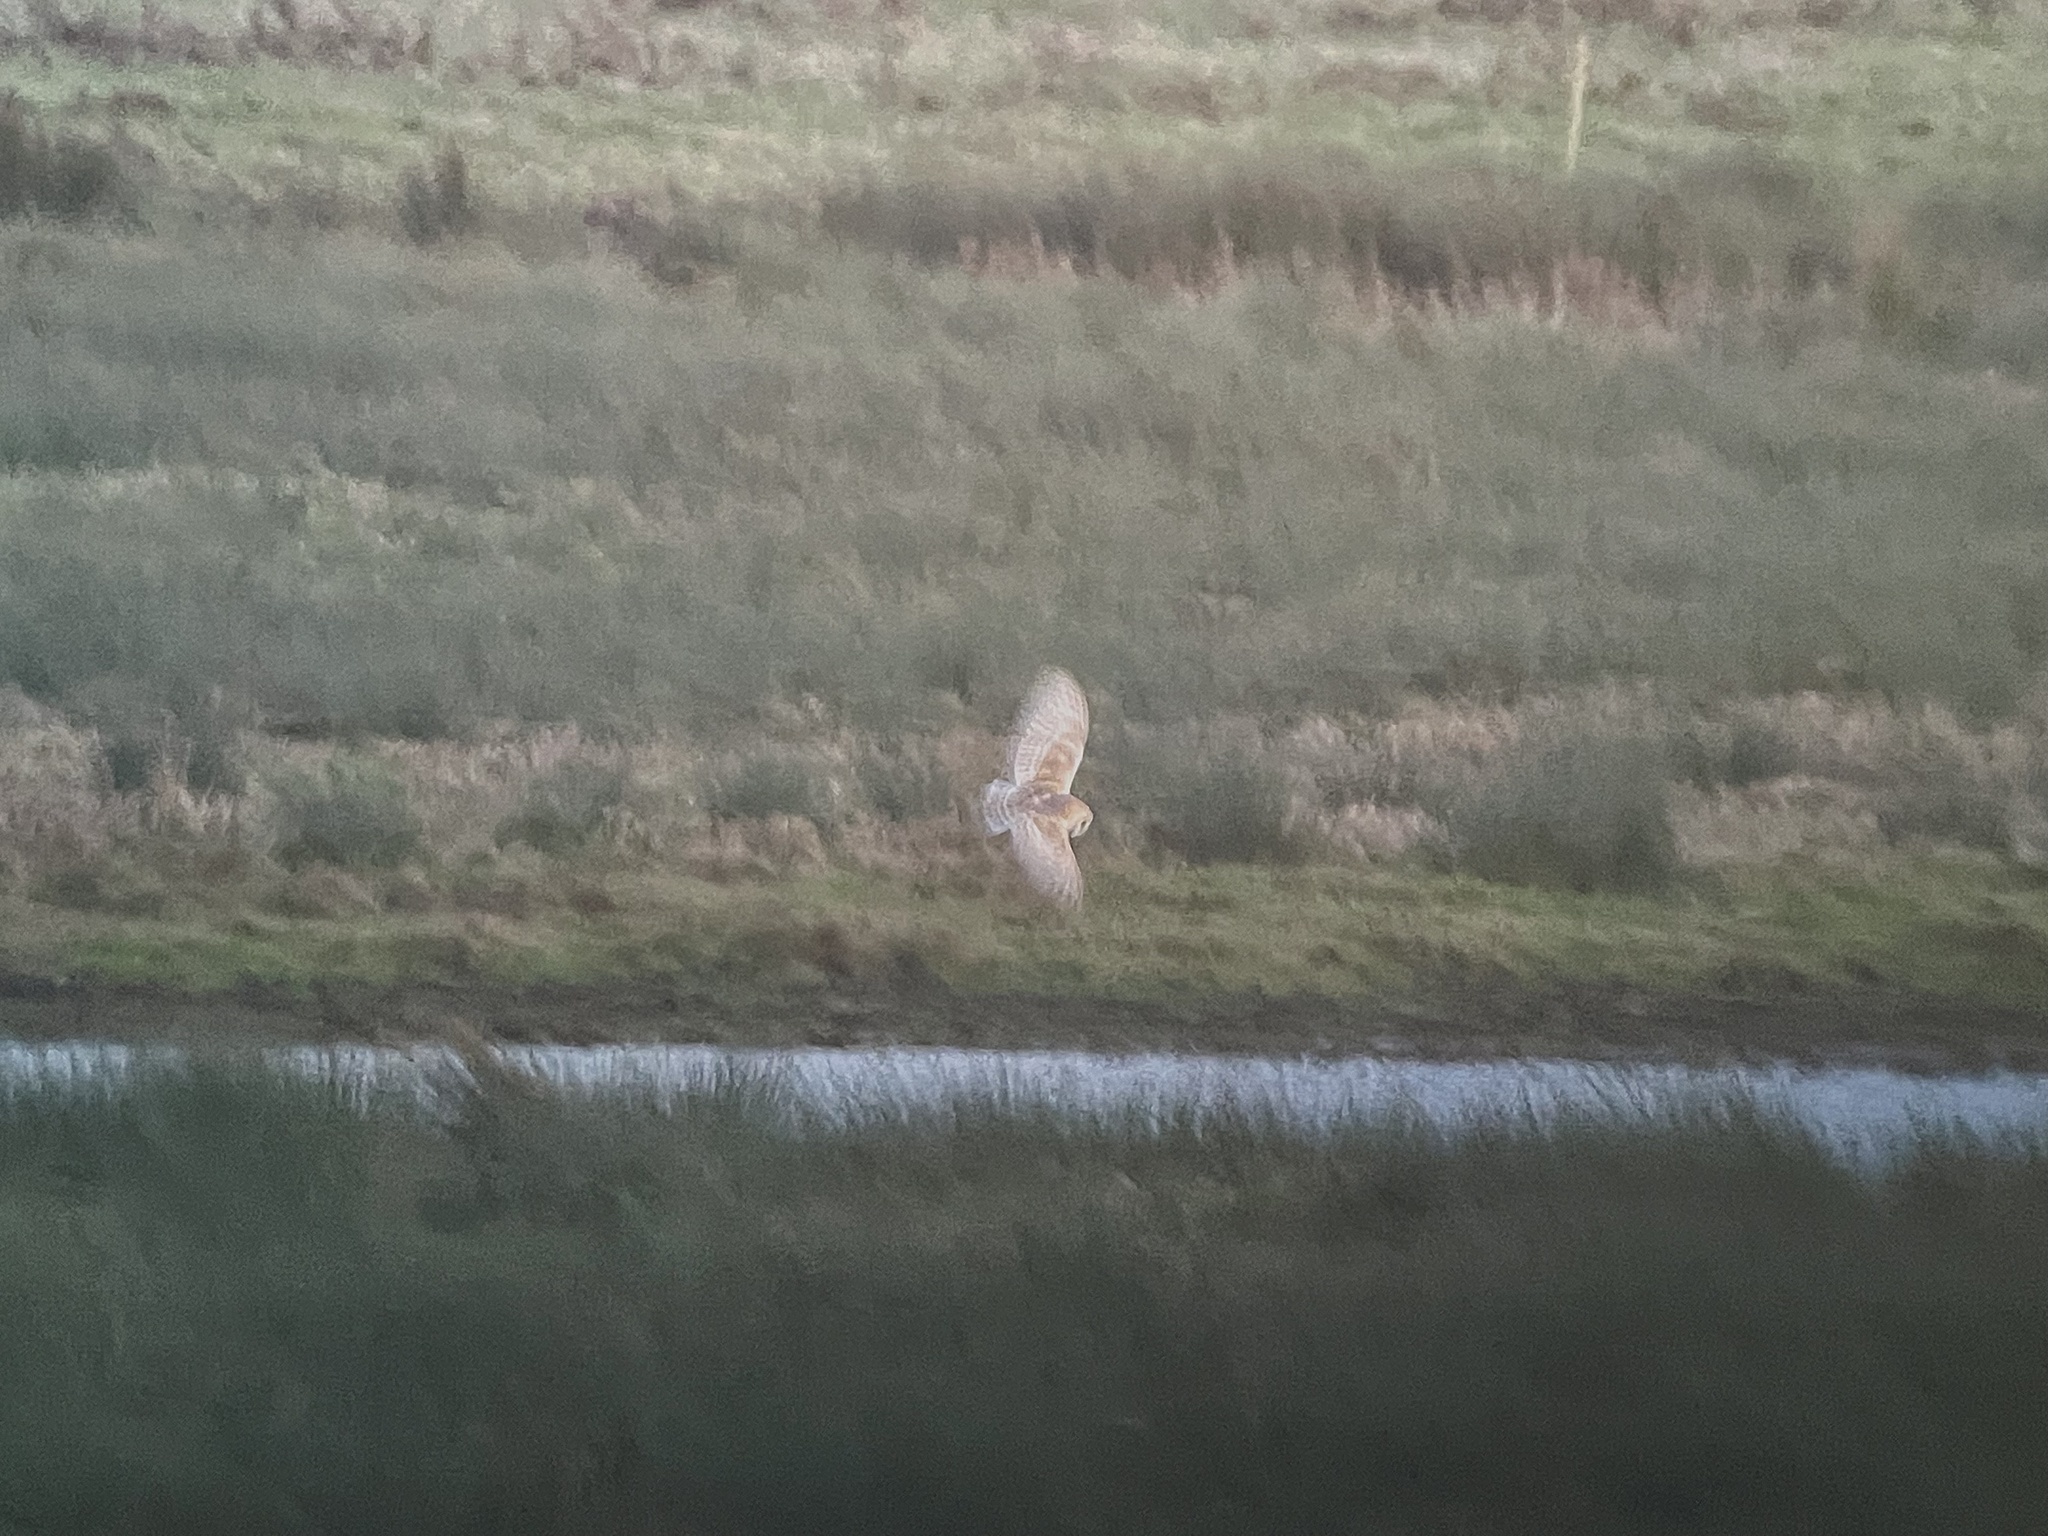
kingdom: Animalia
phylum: Chordata
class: Aves
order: Strigiformes
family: Tytonidae
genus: Tyto
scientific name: Tyto alba
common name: Barn owl
